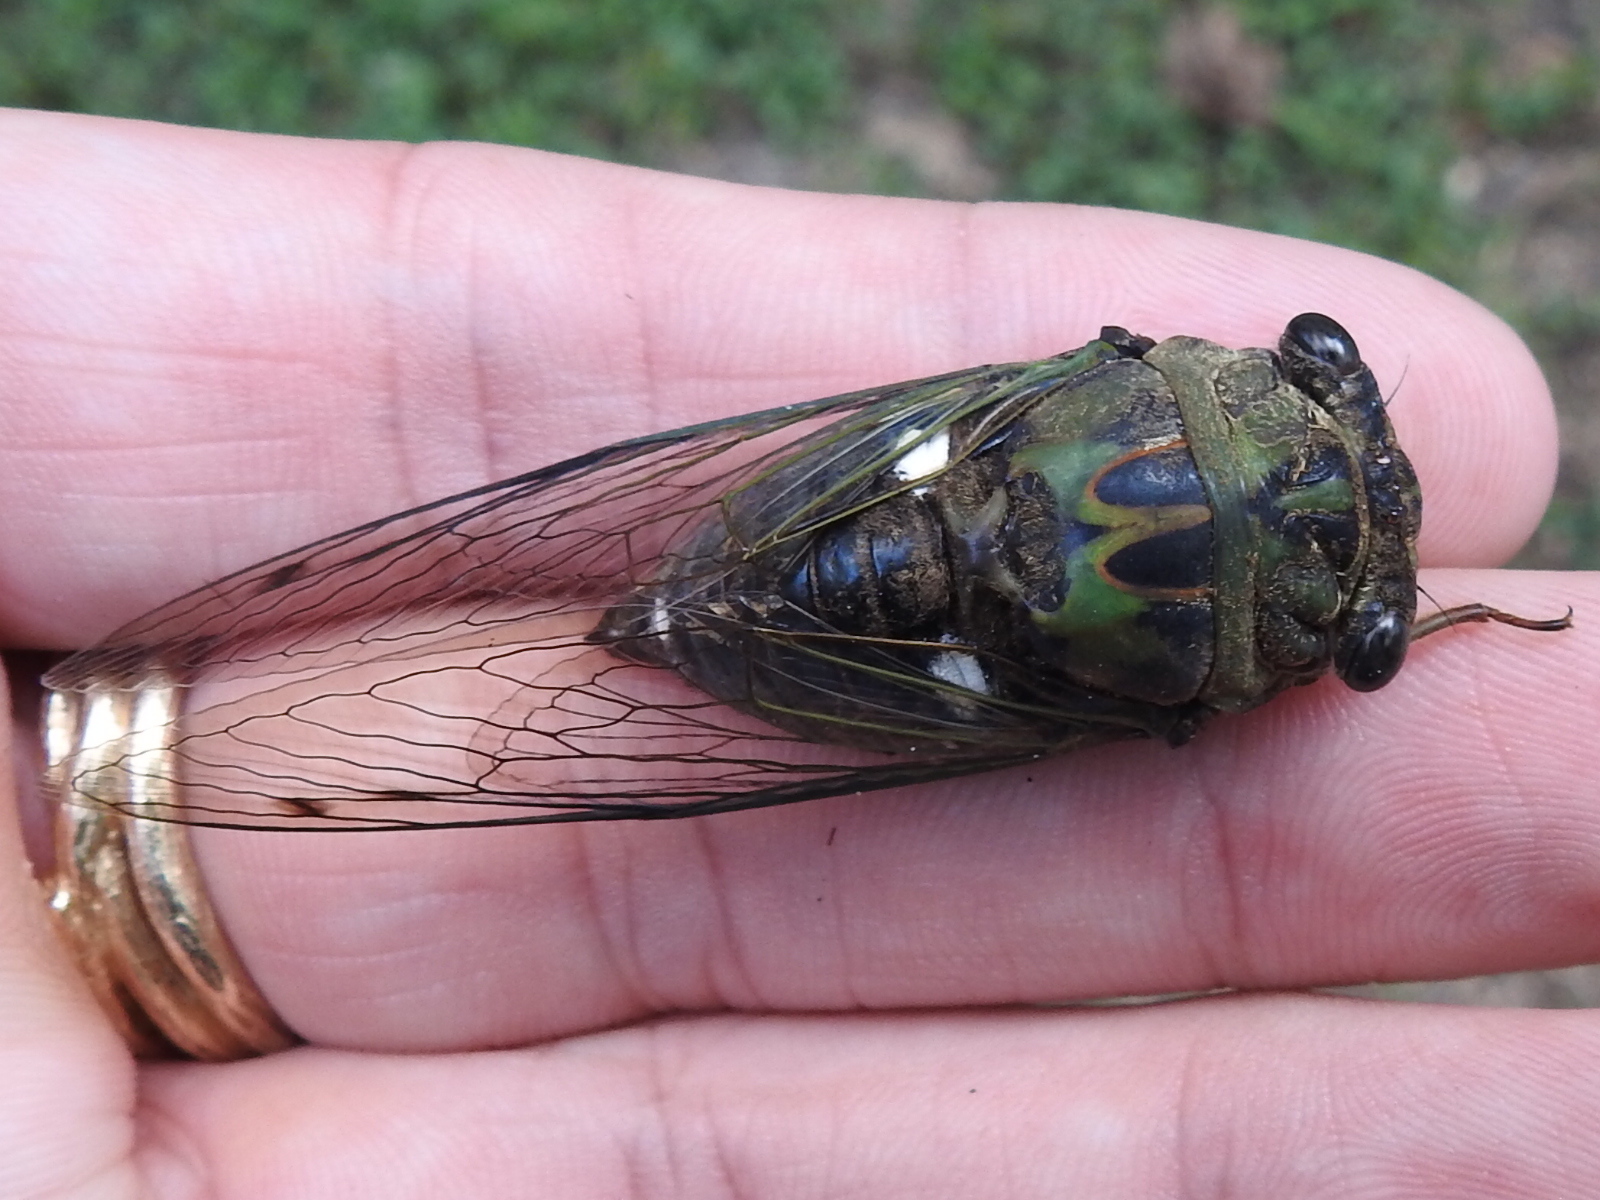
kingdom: Animalia
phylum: Arthropoda
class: Insecta
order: Hemiptera
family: Cicadidae
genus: Neotibicen
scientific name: Neotibicen pruinosus
